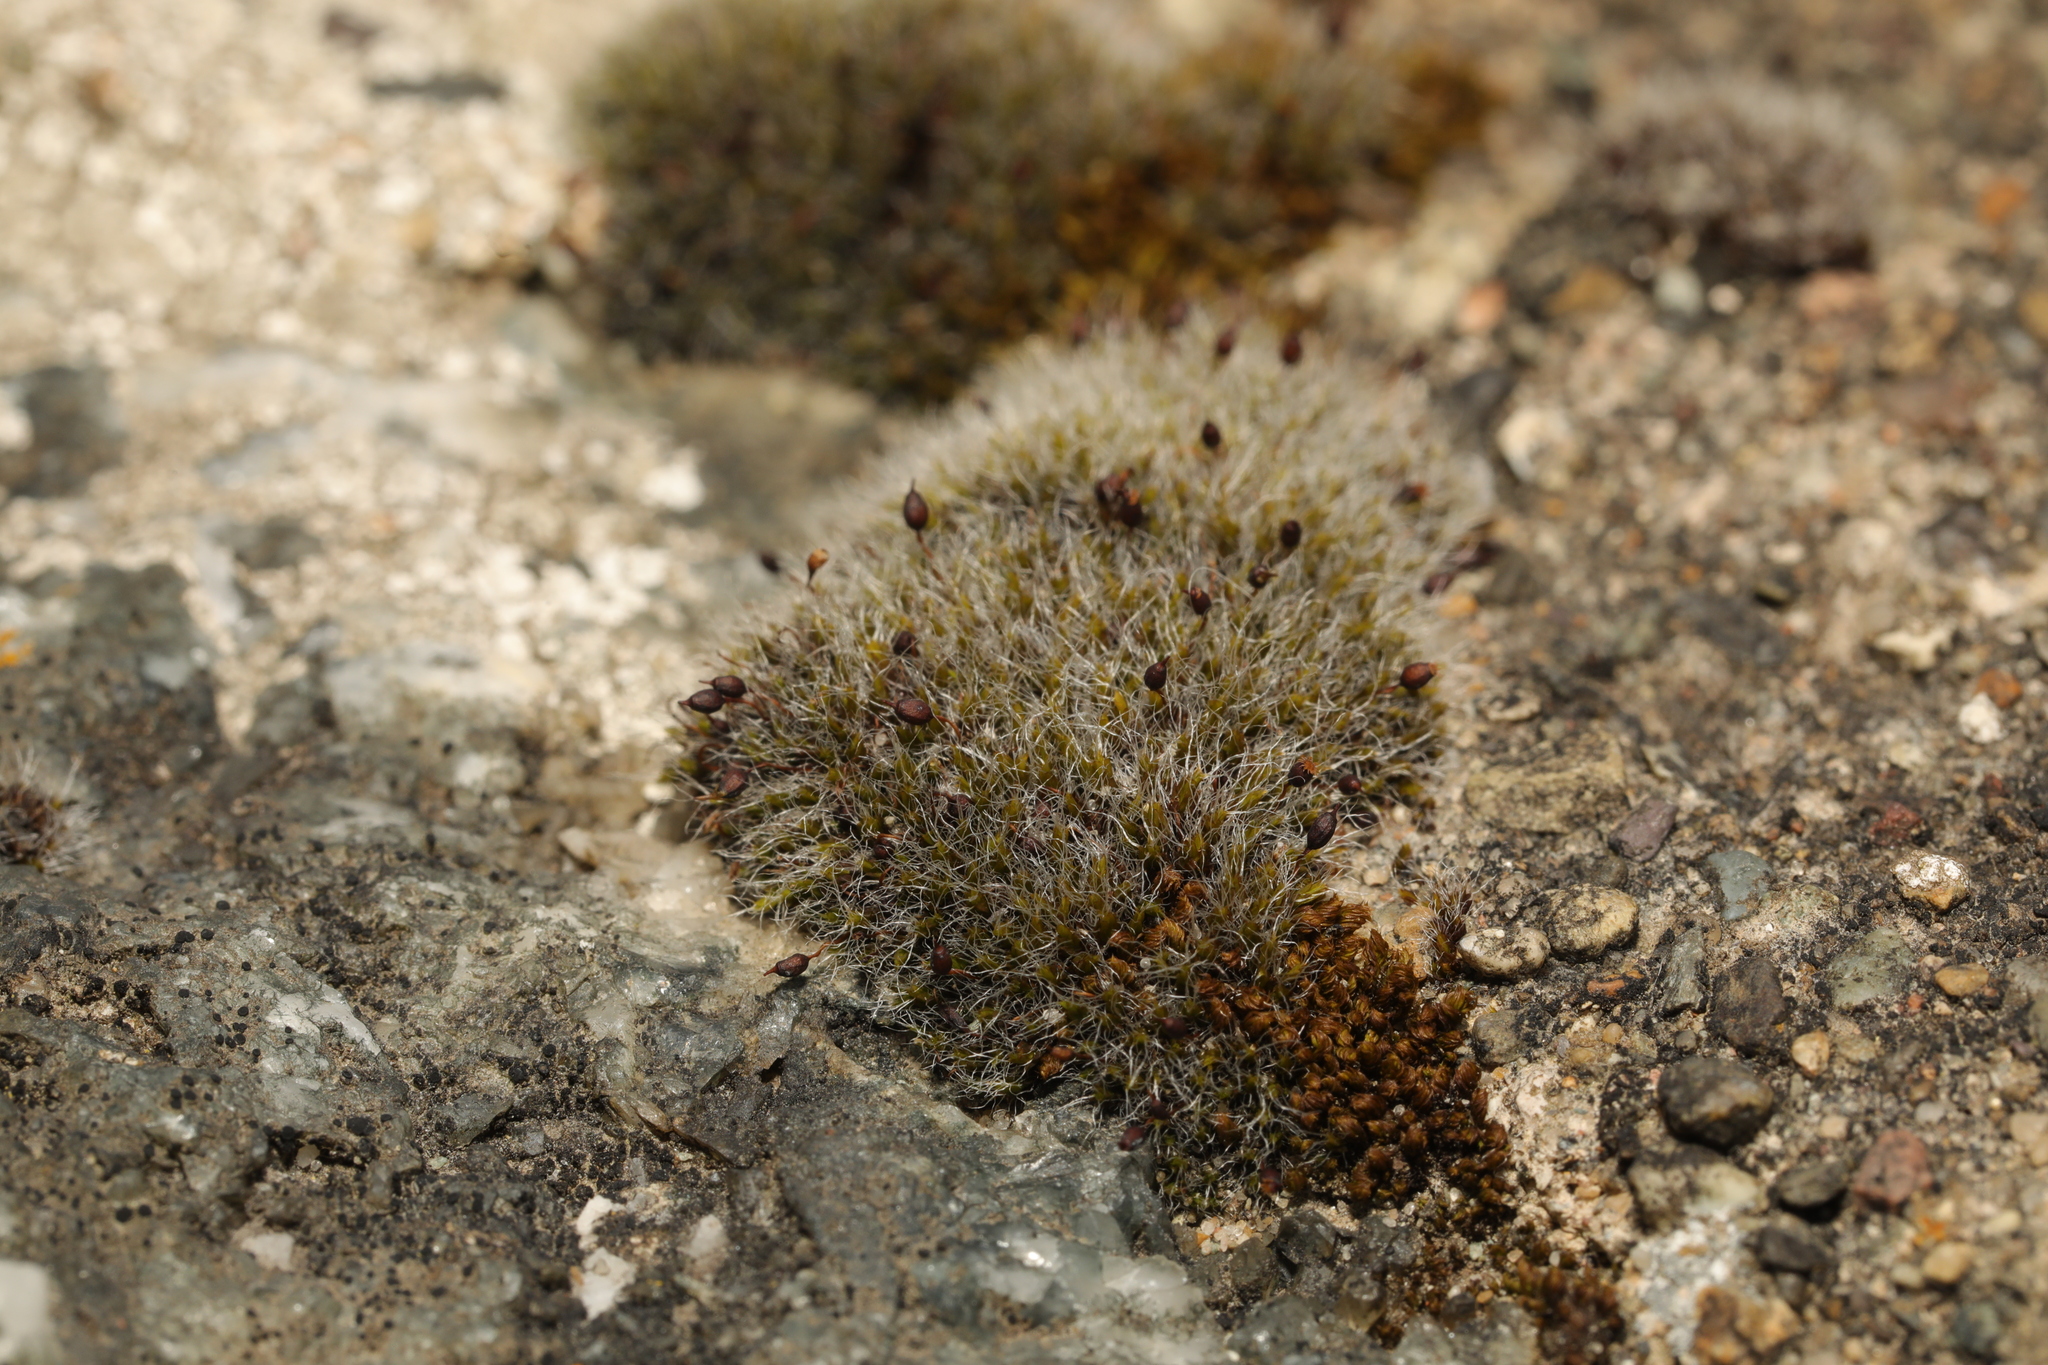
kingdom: Plantae
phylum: Bryophyta
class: Bryopsida
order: Grimmiales
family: Grimmiaceae
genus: Grimmia
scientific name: Grimmia pulvinata
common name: Grey-cushioned grimmia
